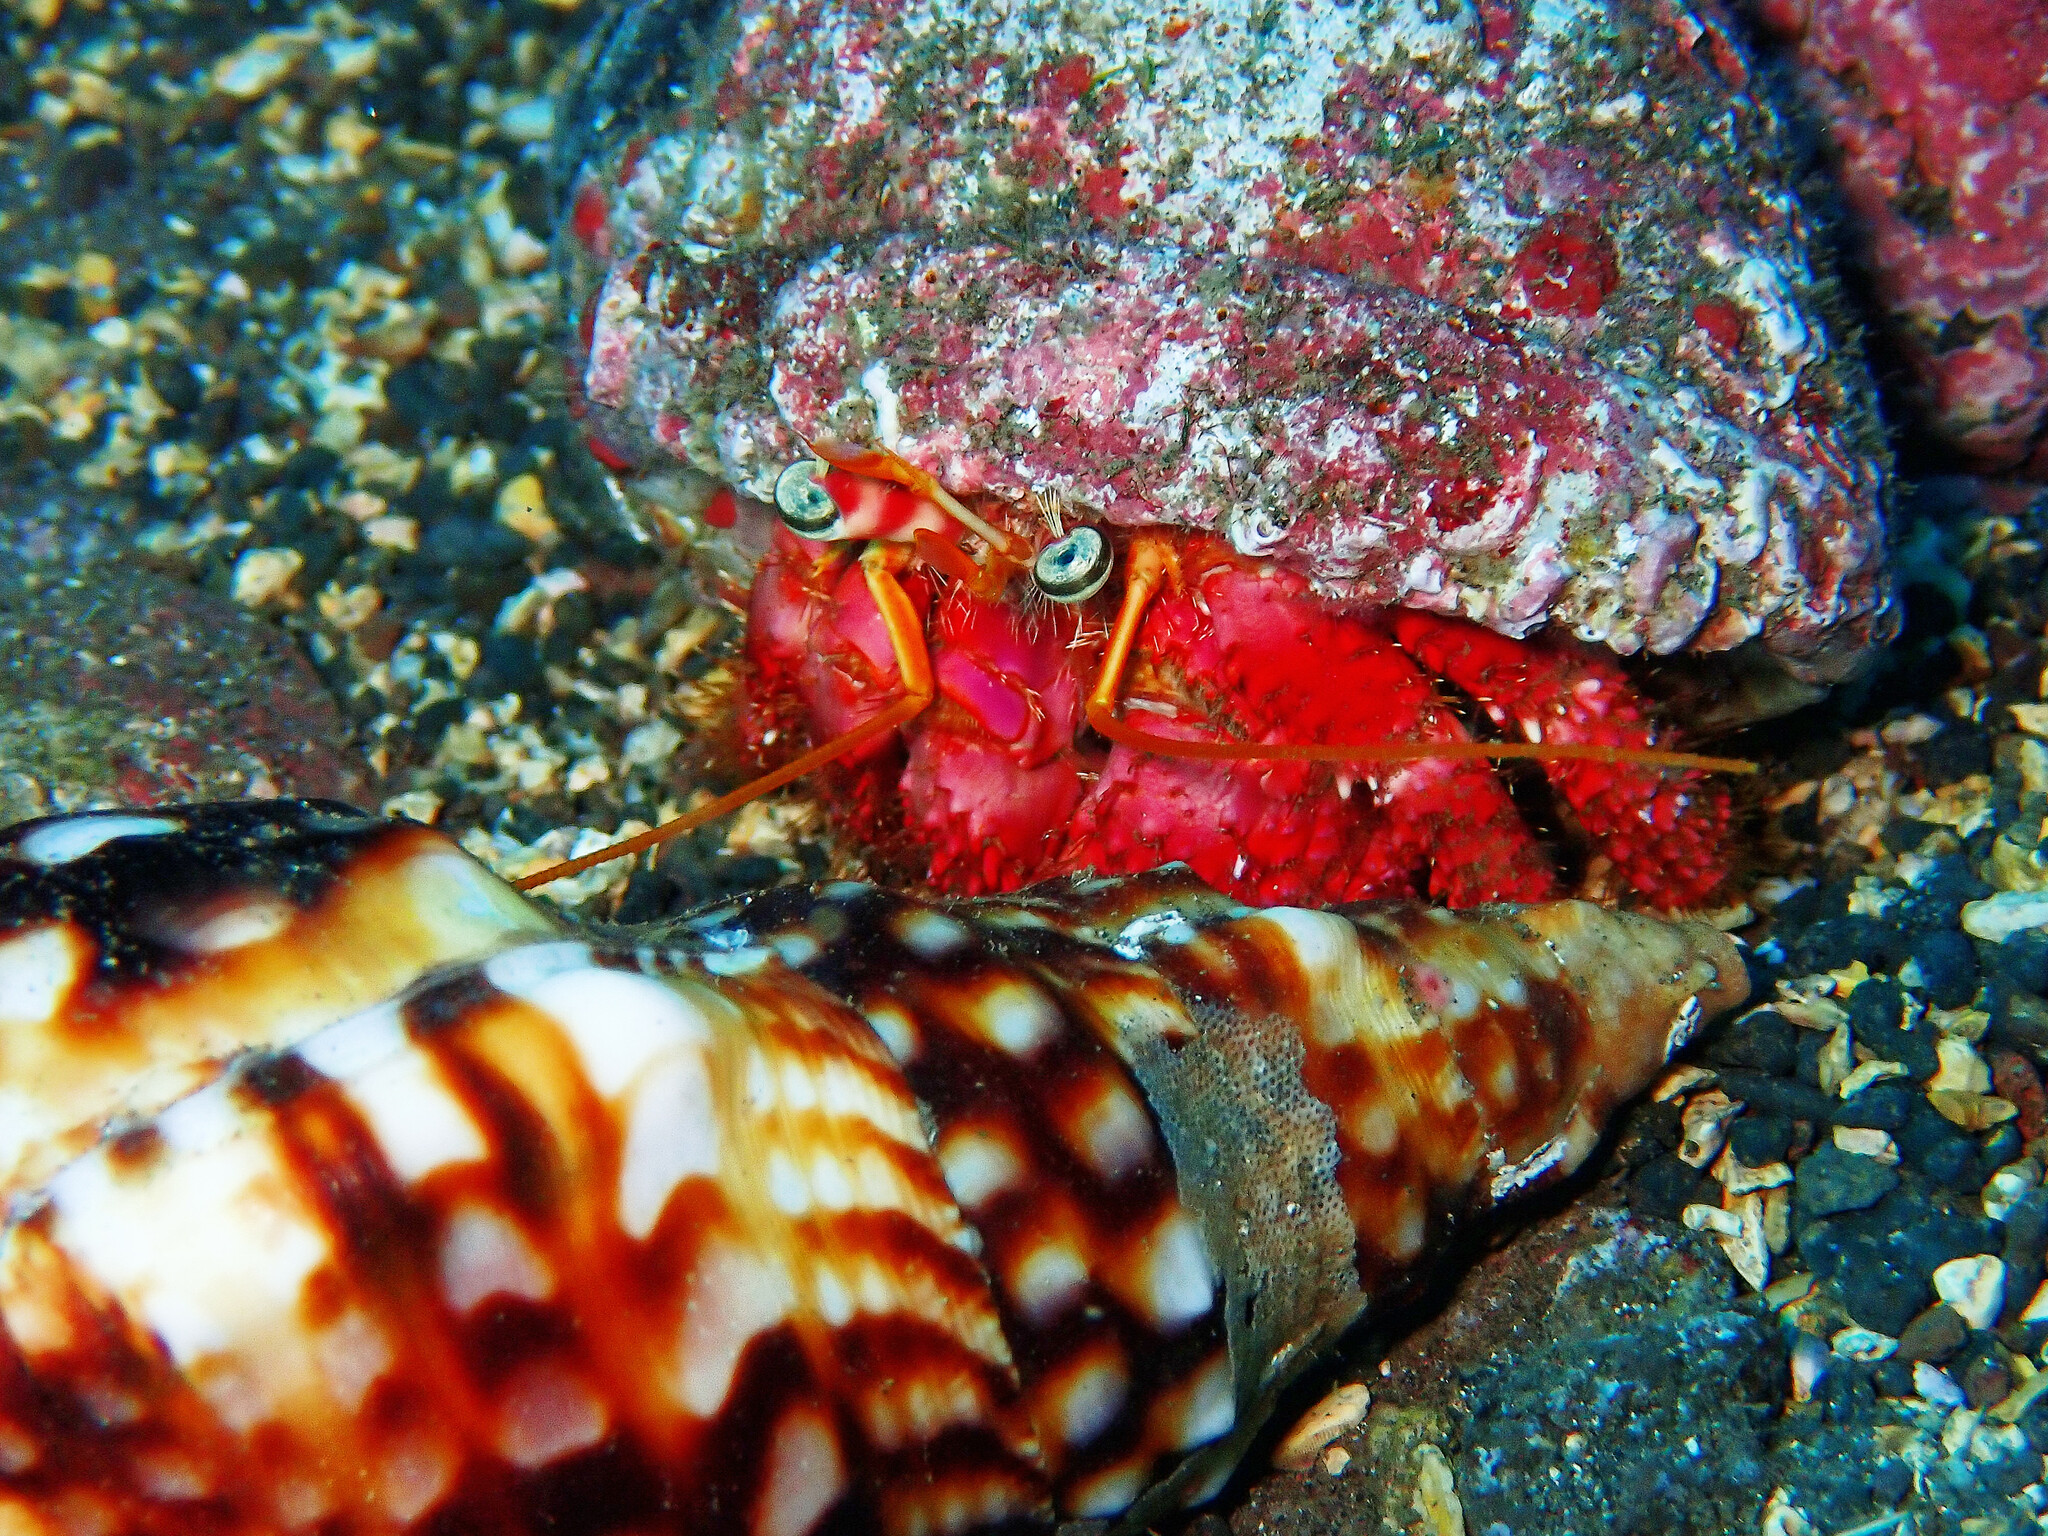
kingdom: Animalia
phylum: Arthropoda
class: Malacostraca
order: Decapoda
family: Diogenidae
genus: Dardanus
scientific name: Dardanus calidus
